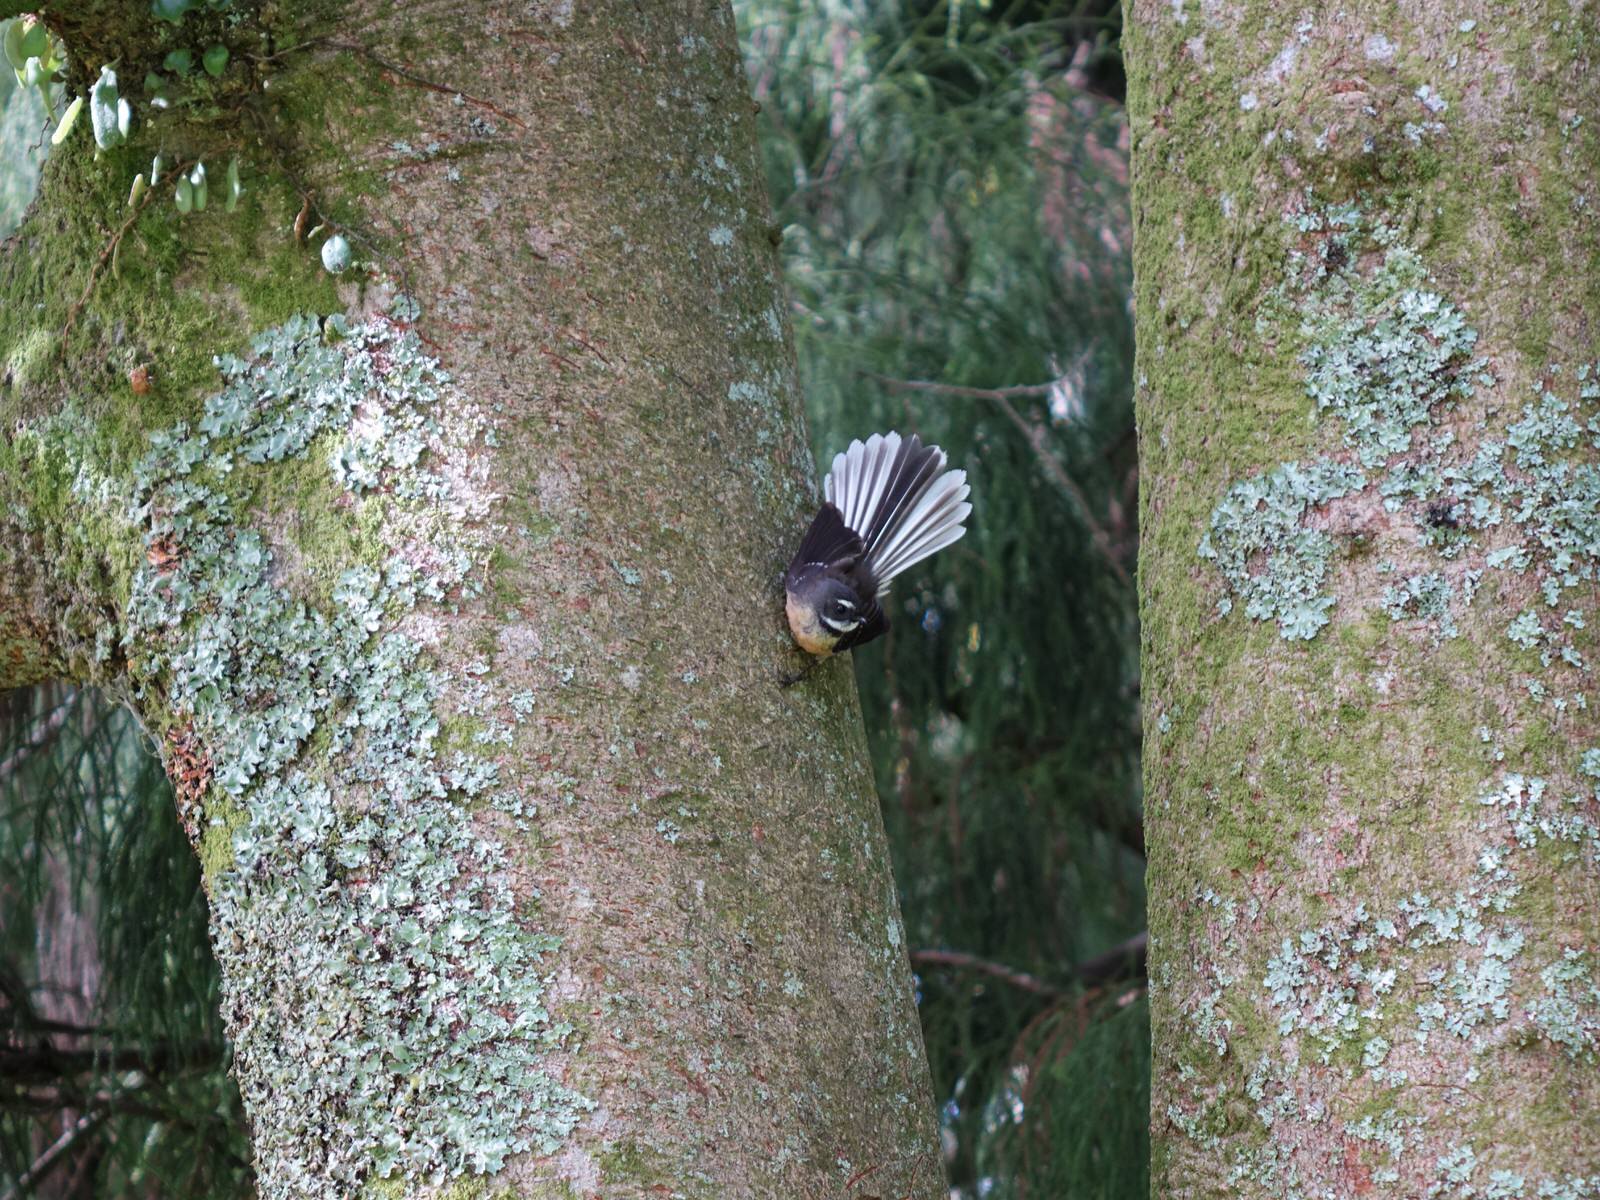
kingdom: Animalia
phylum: Chordata
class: Aves
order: Passeriformes
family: Rhipiduridae
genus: Rhipidura
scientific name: Rhipidura fuliginosa
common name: New zealand fantail
